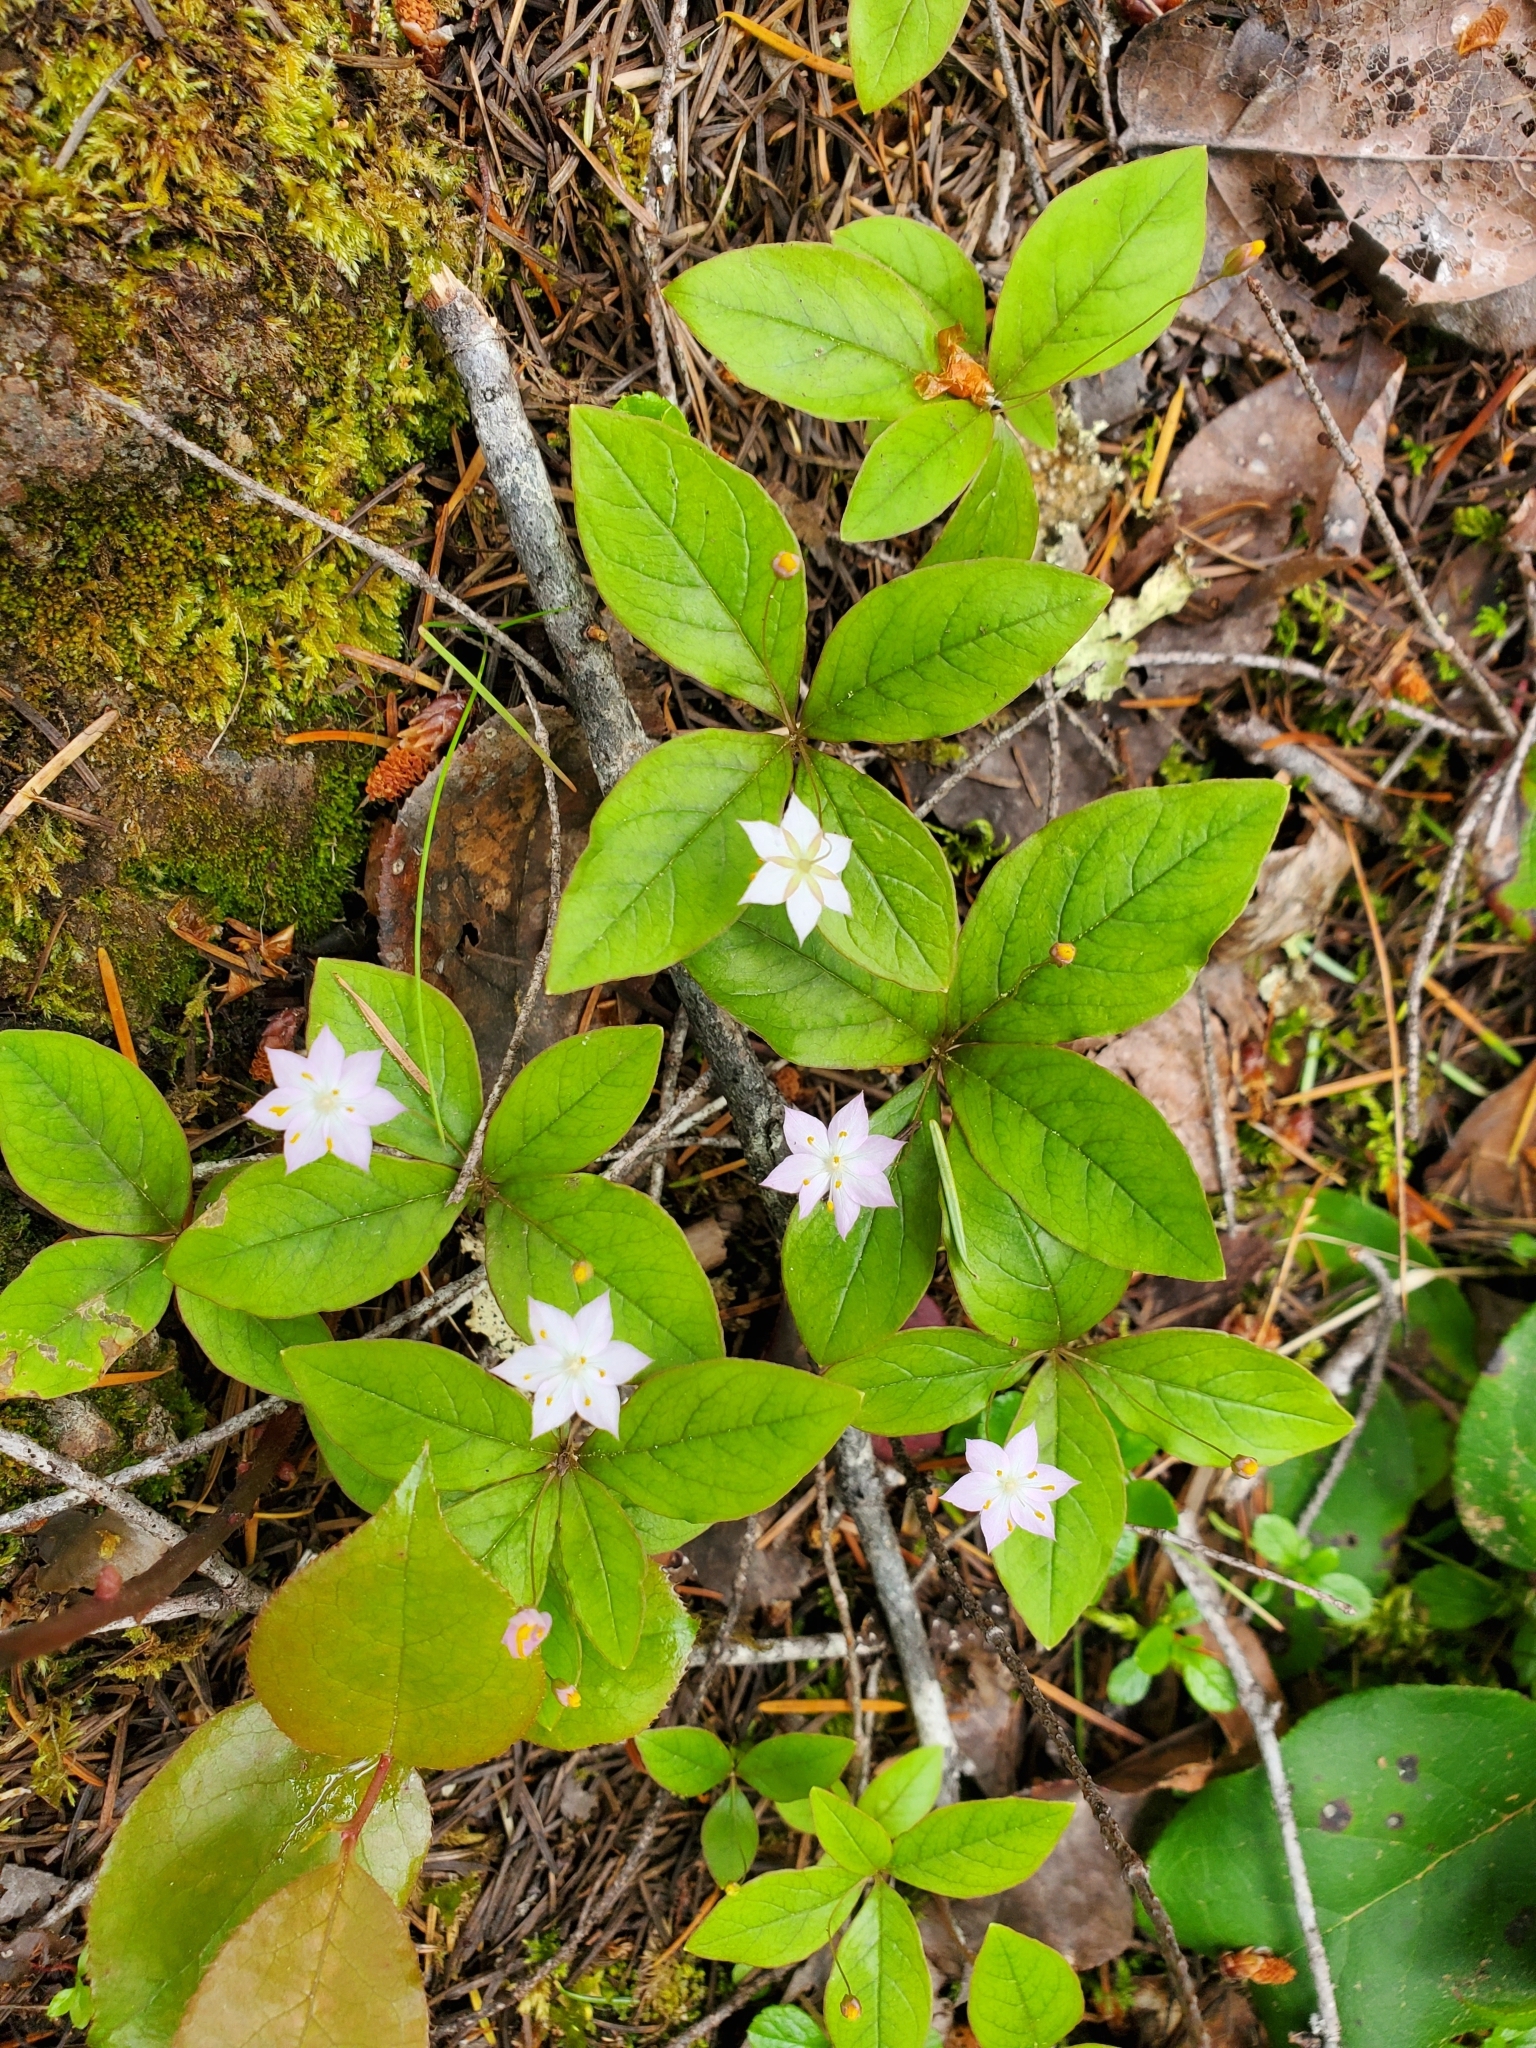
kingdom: Plantae
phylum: Tracheophyta
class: Magnoliopsida
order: Ericales
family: Primulaceae
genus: Lysimachia
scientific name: Lysimachia latifolia
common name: Pacific starflower
